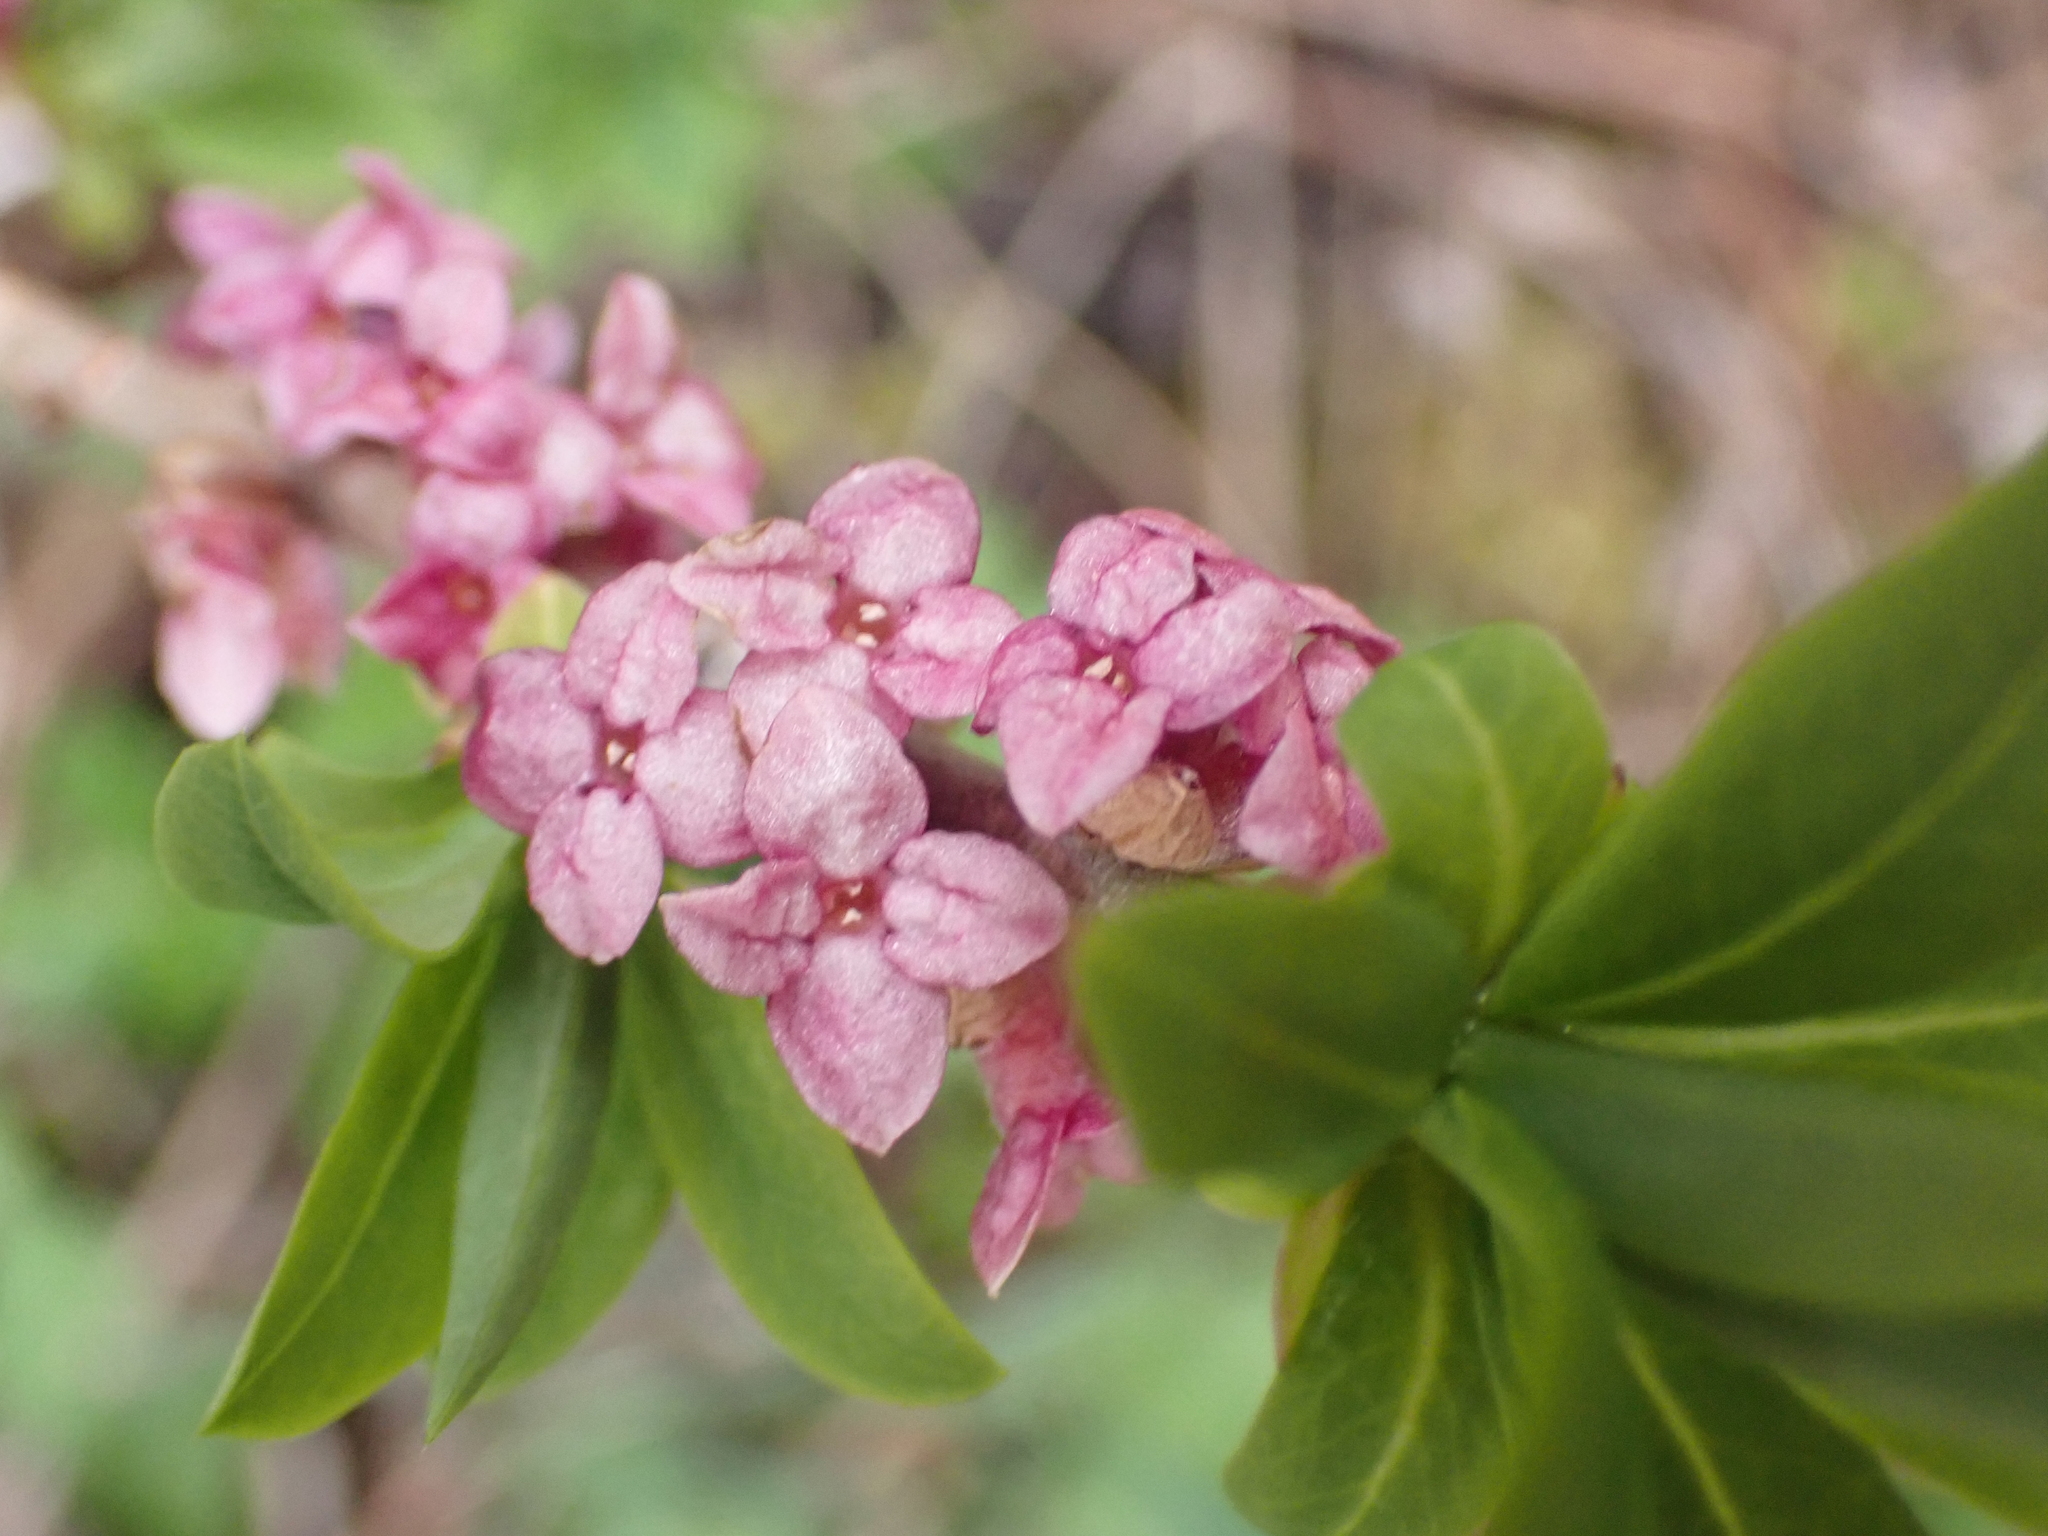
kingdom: Plantae
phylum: Tracheophyta
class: Magnoliopsida
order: Malvales
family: Thymelaeaceae
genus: Daphne
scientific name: Daphne mezereum
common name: Mezereon
